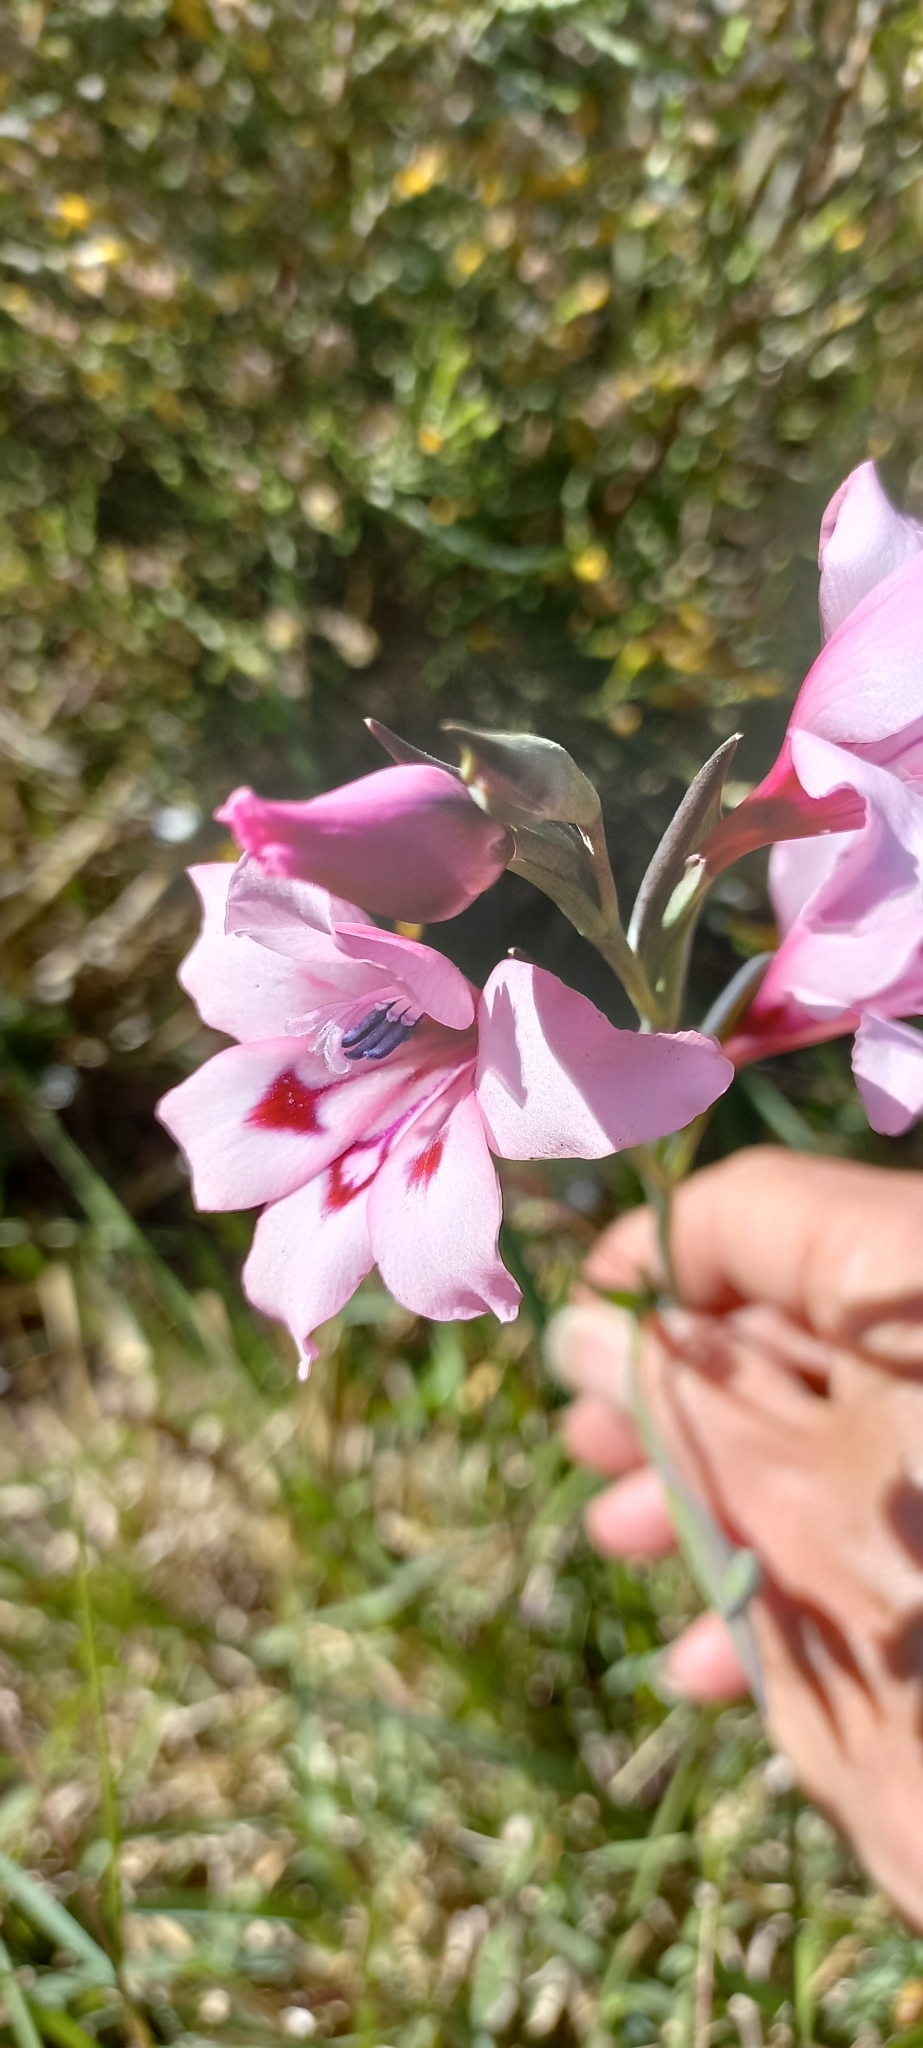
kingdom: Plantae
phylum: Tracheophyta
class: Liliopsida
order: Asparagales
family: Iridaceae
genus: Gladiolus
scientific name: Gladiolus carneus
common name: Painted-lady
